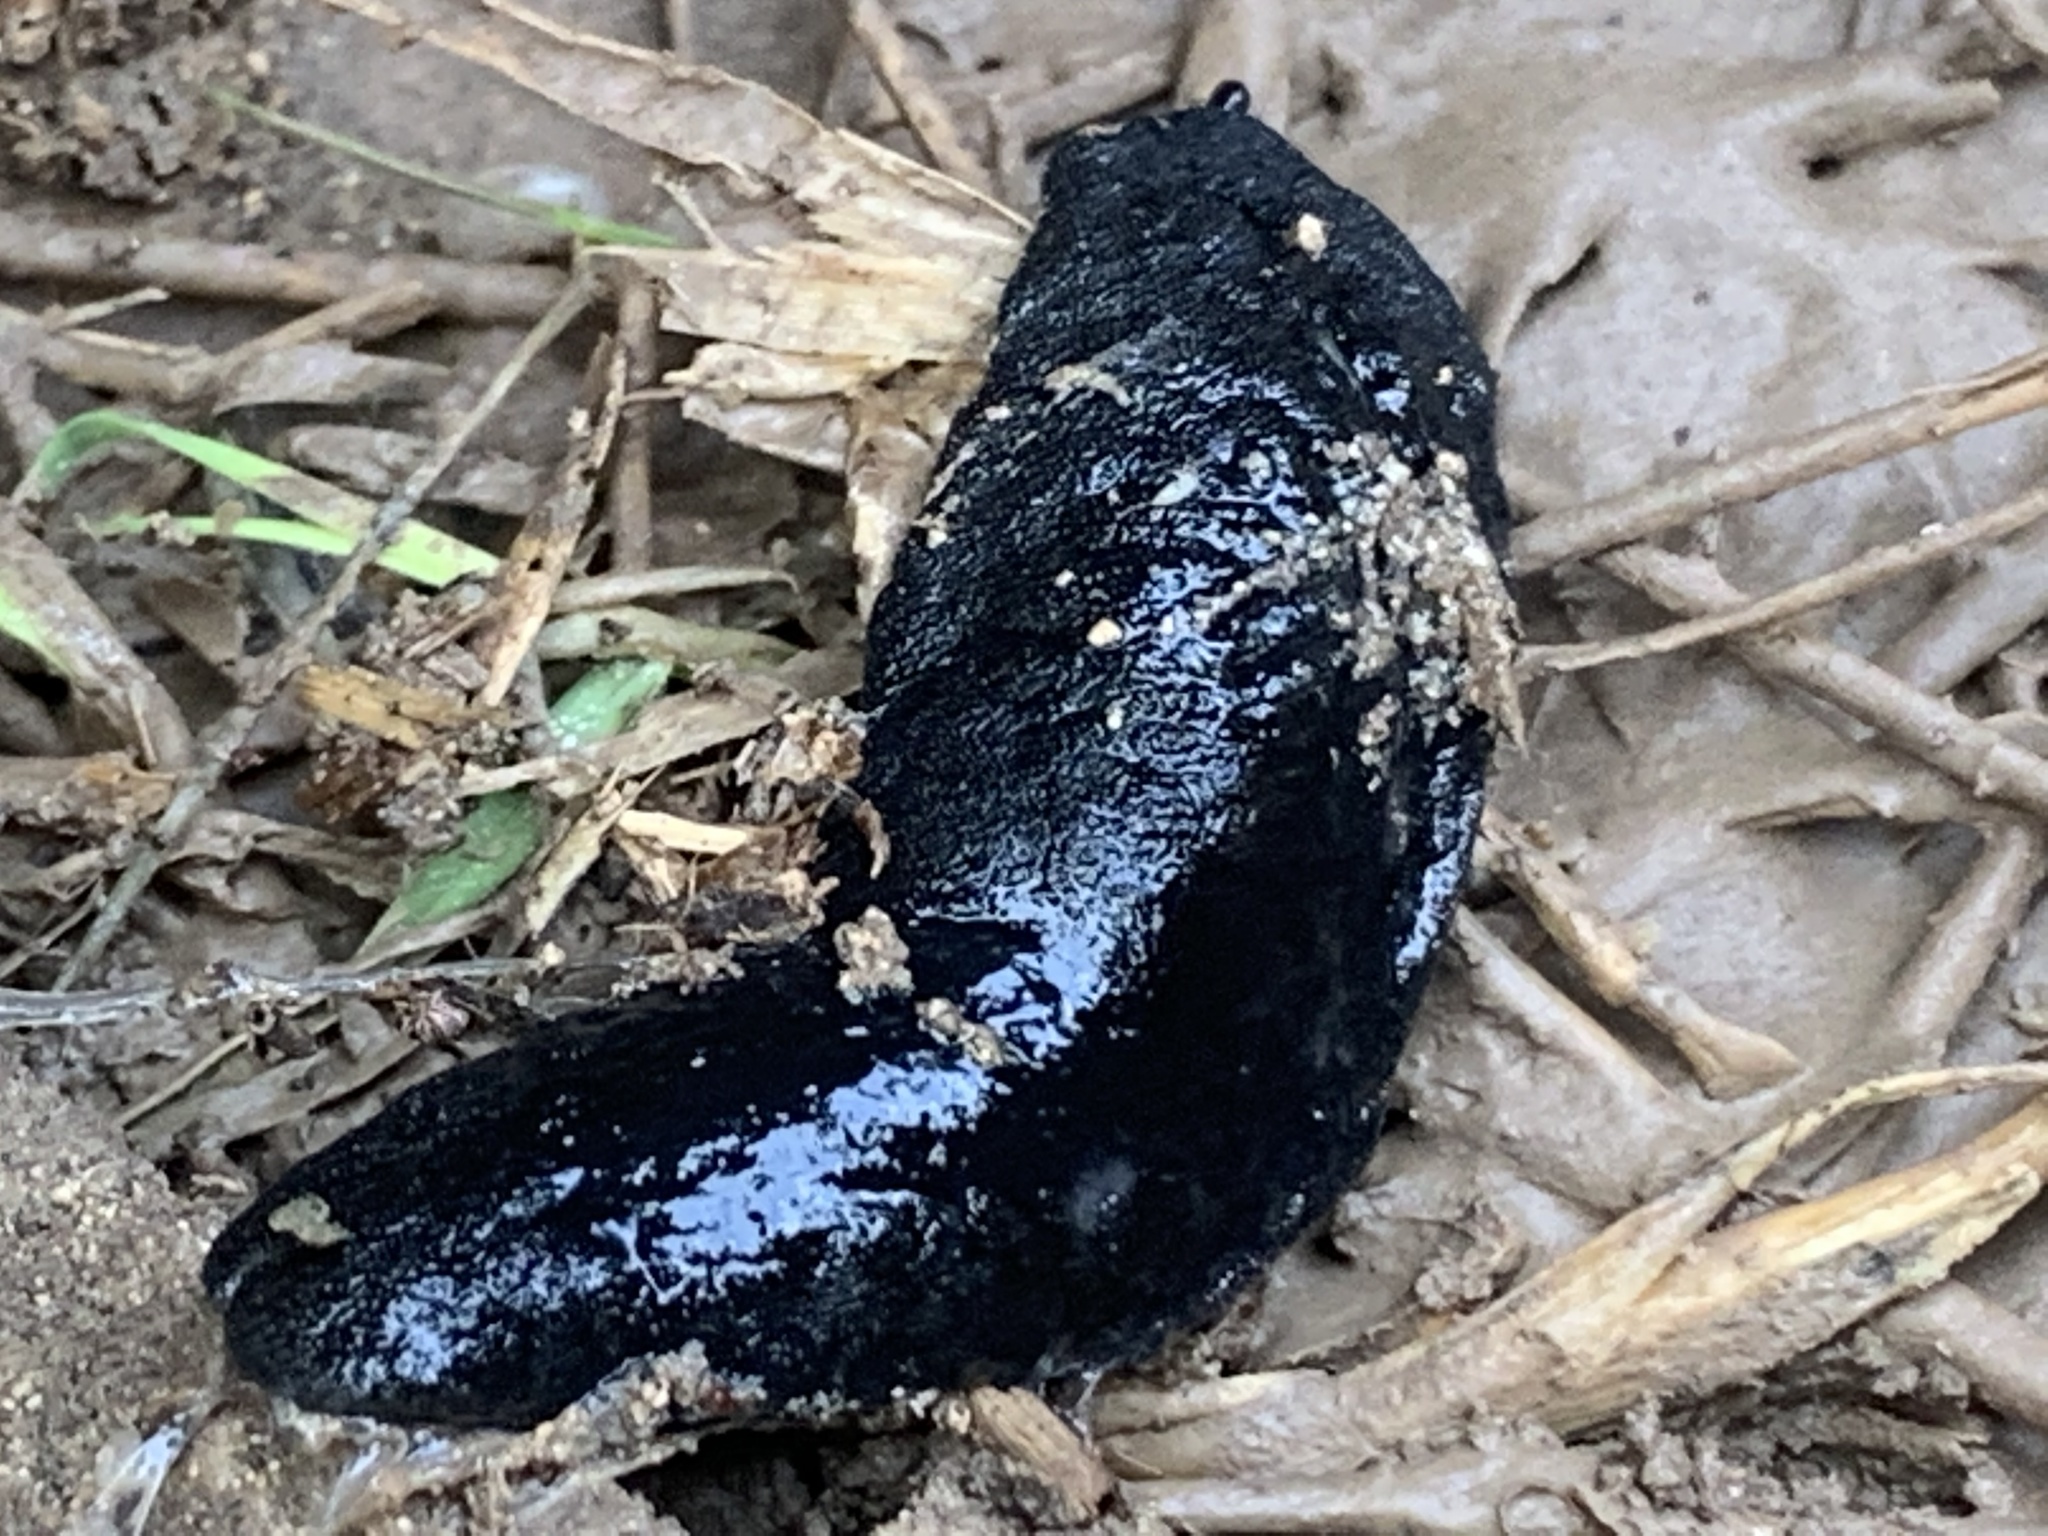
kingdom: Animalia
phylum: Mollusca
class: Gastropoda
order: Systellommatophora
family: Veronicellidae
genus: Belocaulus
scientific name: Belocaulus angustipes
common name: Black velvet leatherleaf slug
